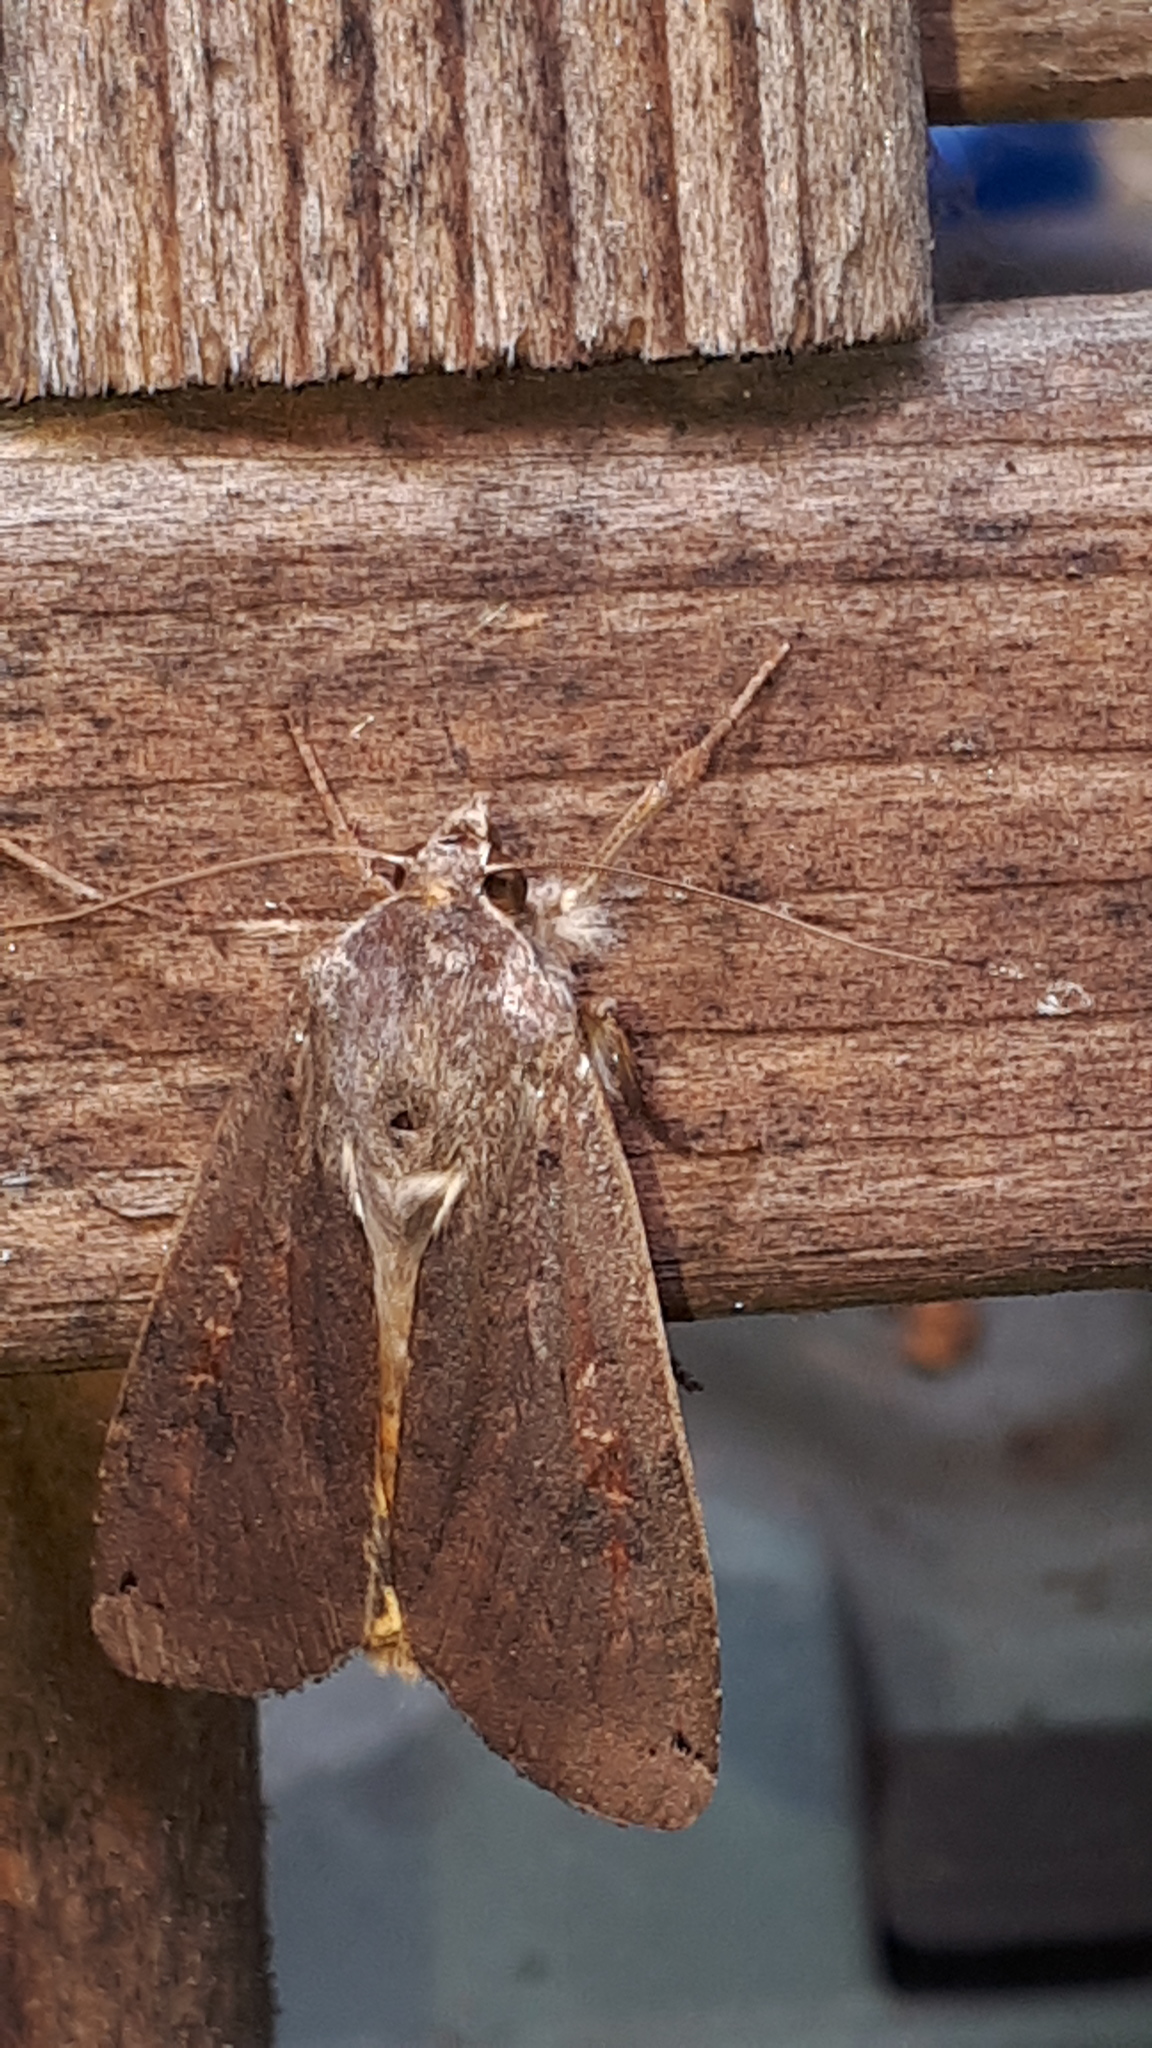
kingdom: Animalia
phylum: Arthropoda
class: Insecta
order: Lepidoptera
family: Noctuidae
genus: Noctua
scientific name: Noctua pronuba
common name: Large yellow underwing
